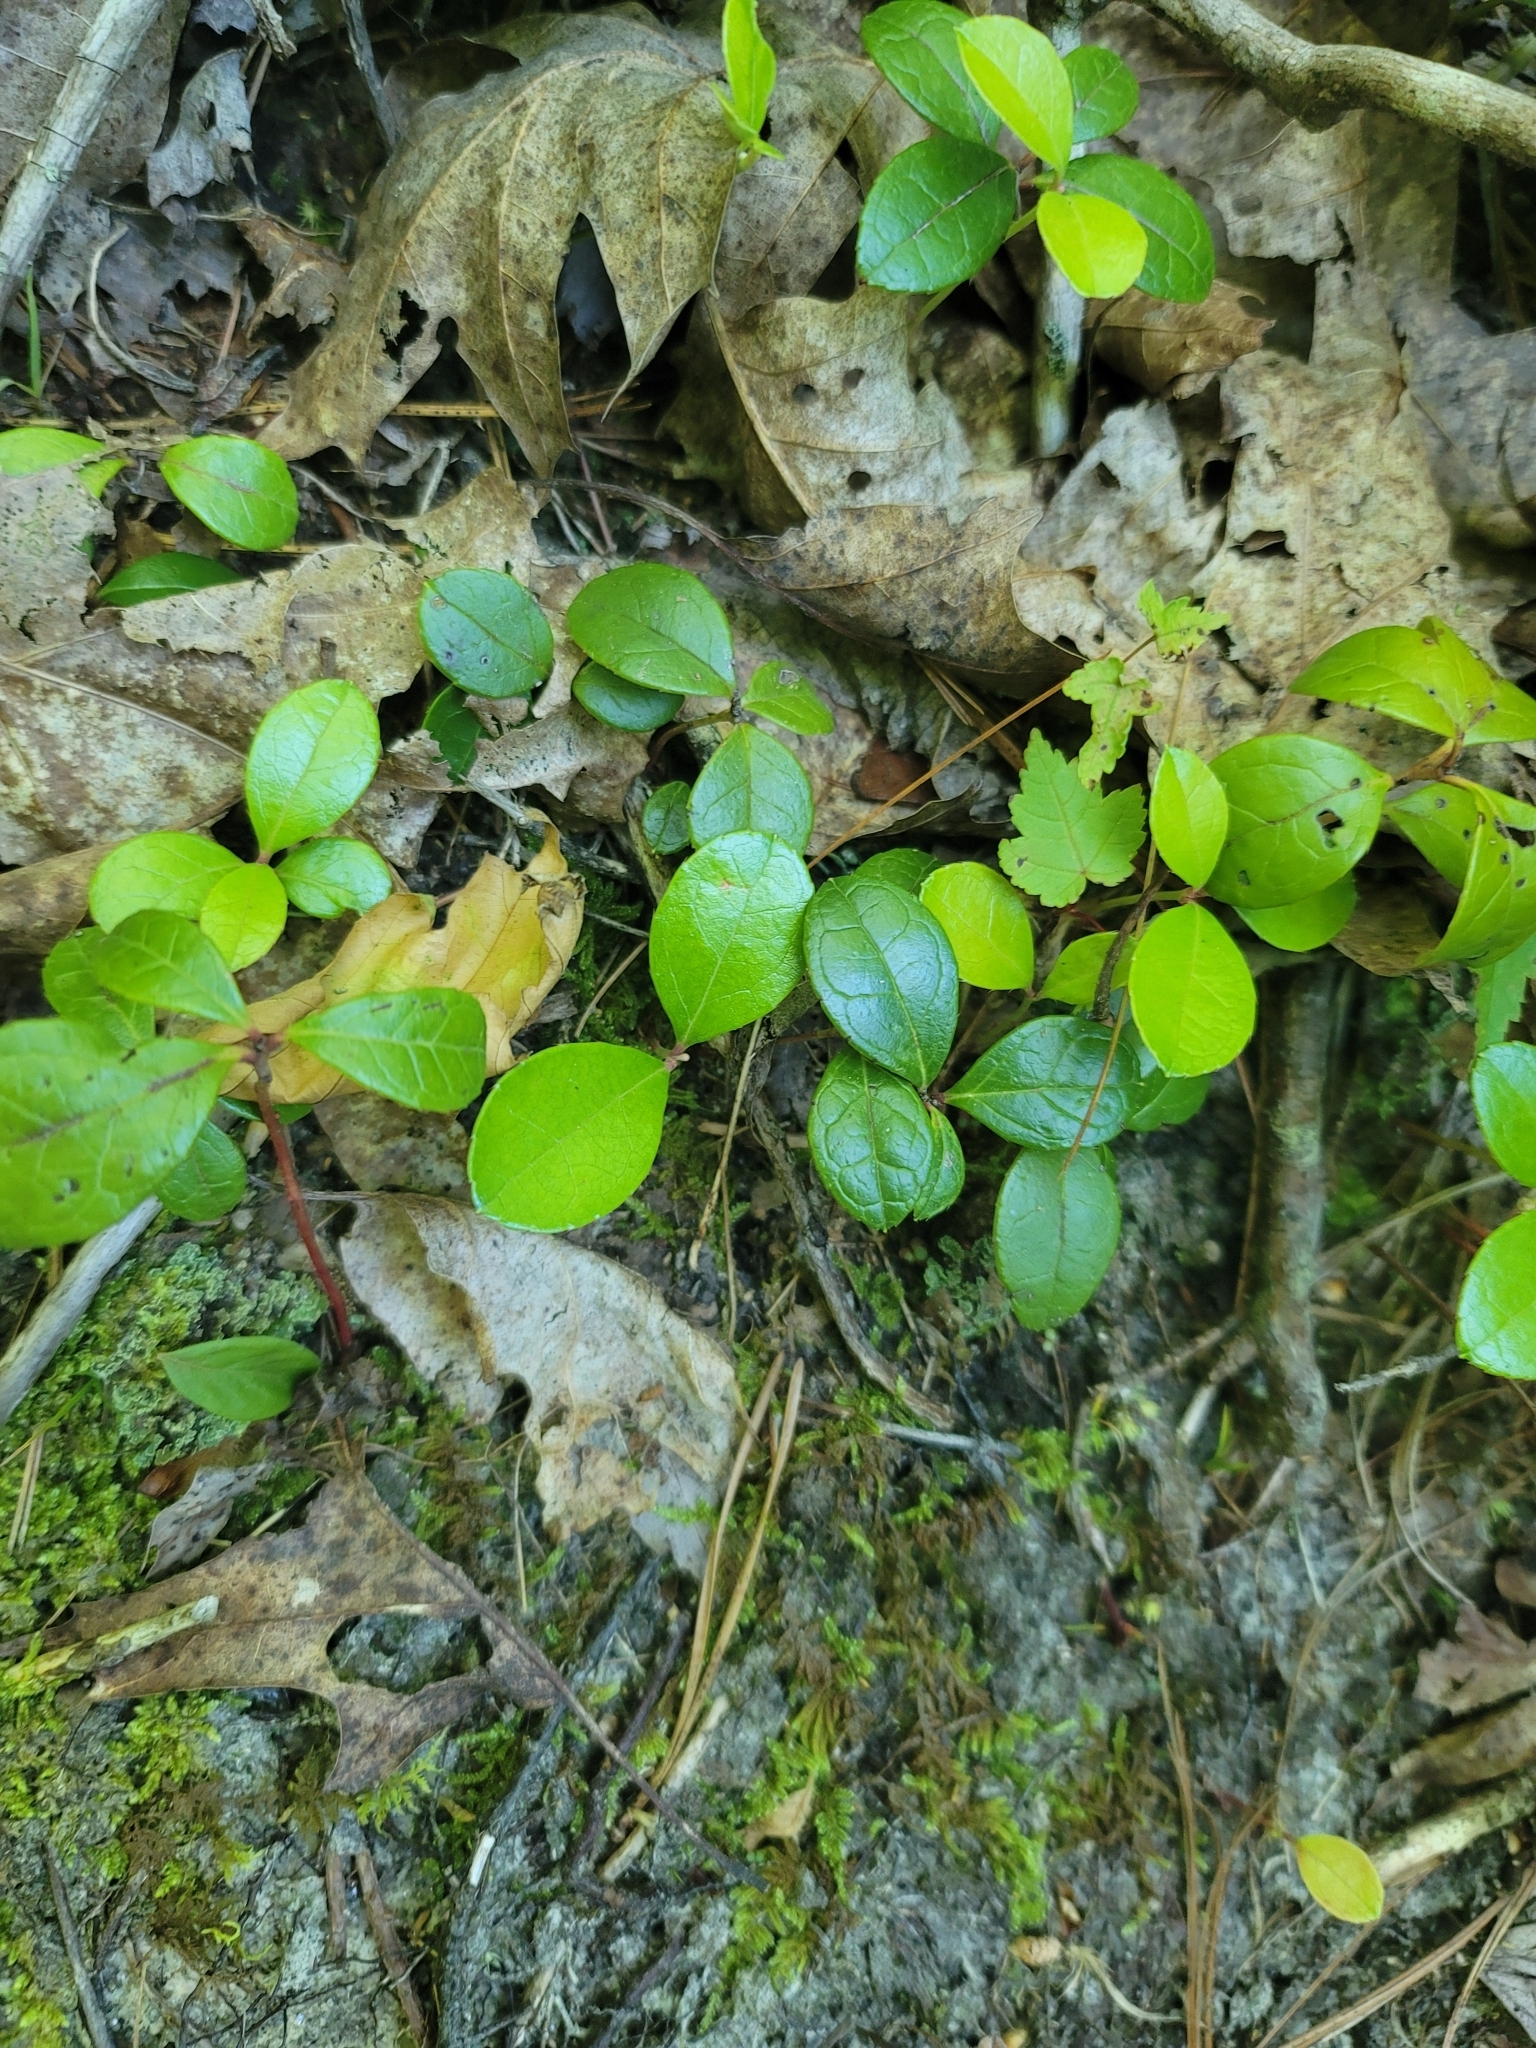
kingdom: Plantae
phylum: Tracheophyta
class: Magnoliopsida
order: Ericales
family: Ericaceae
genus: Gaultheria
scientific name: Gaultheria procumbens
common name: Checkerberry
